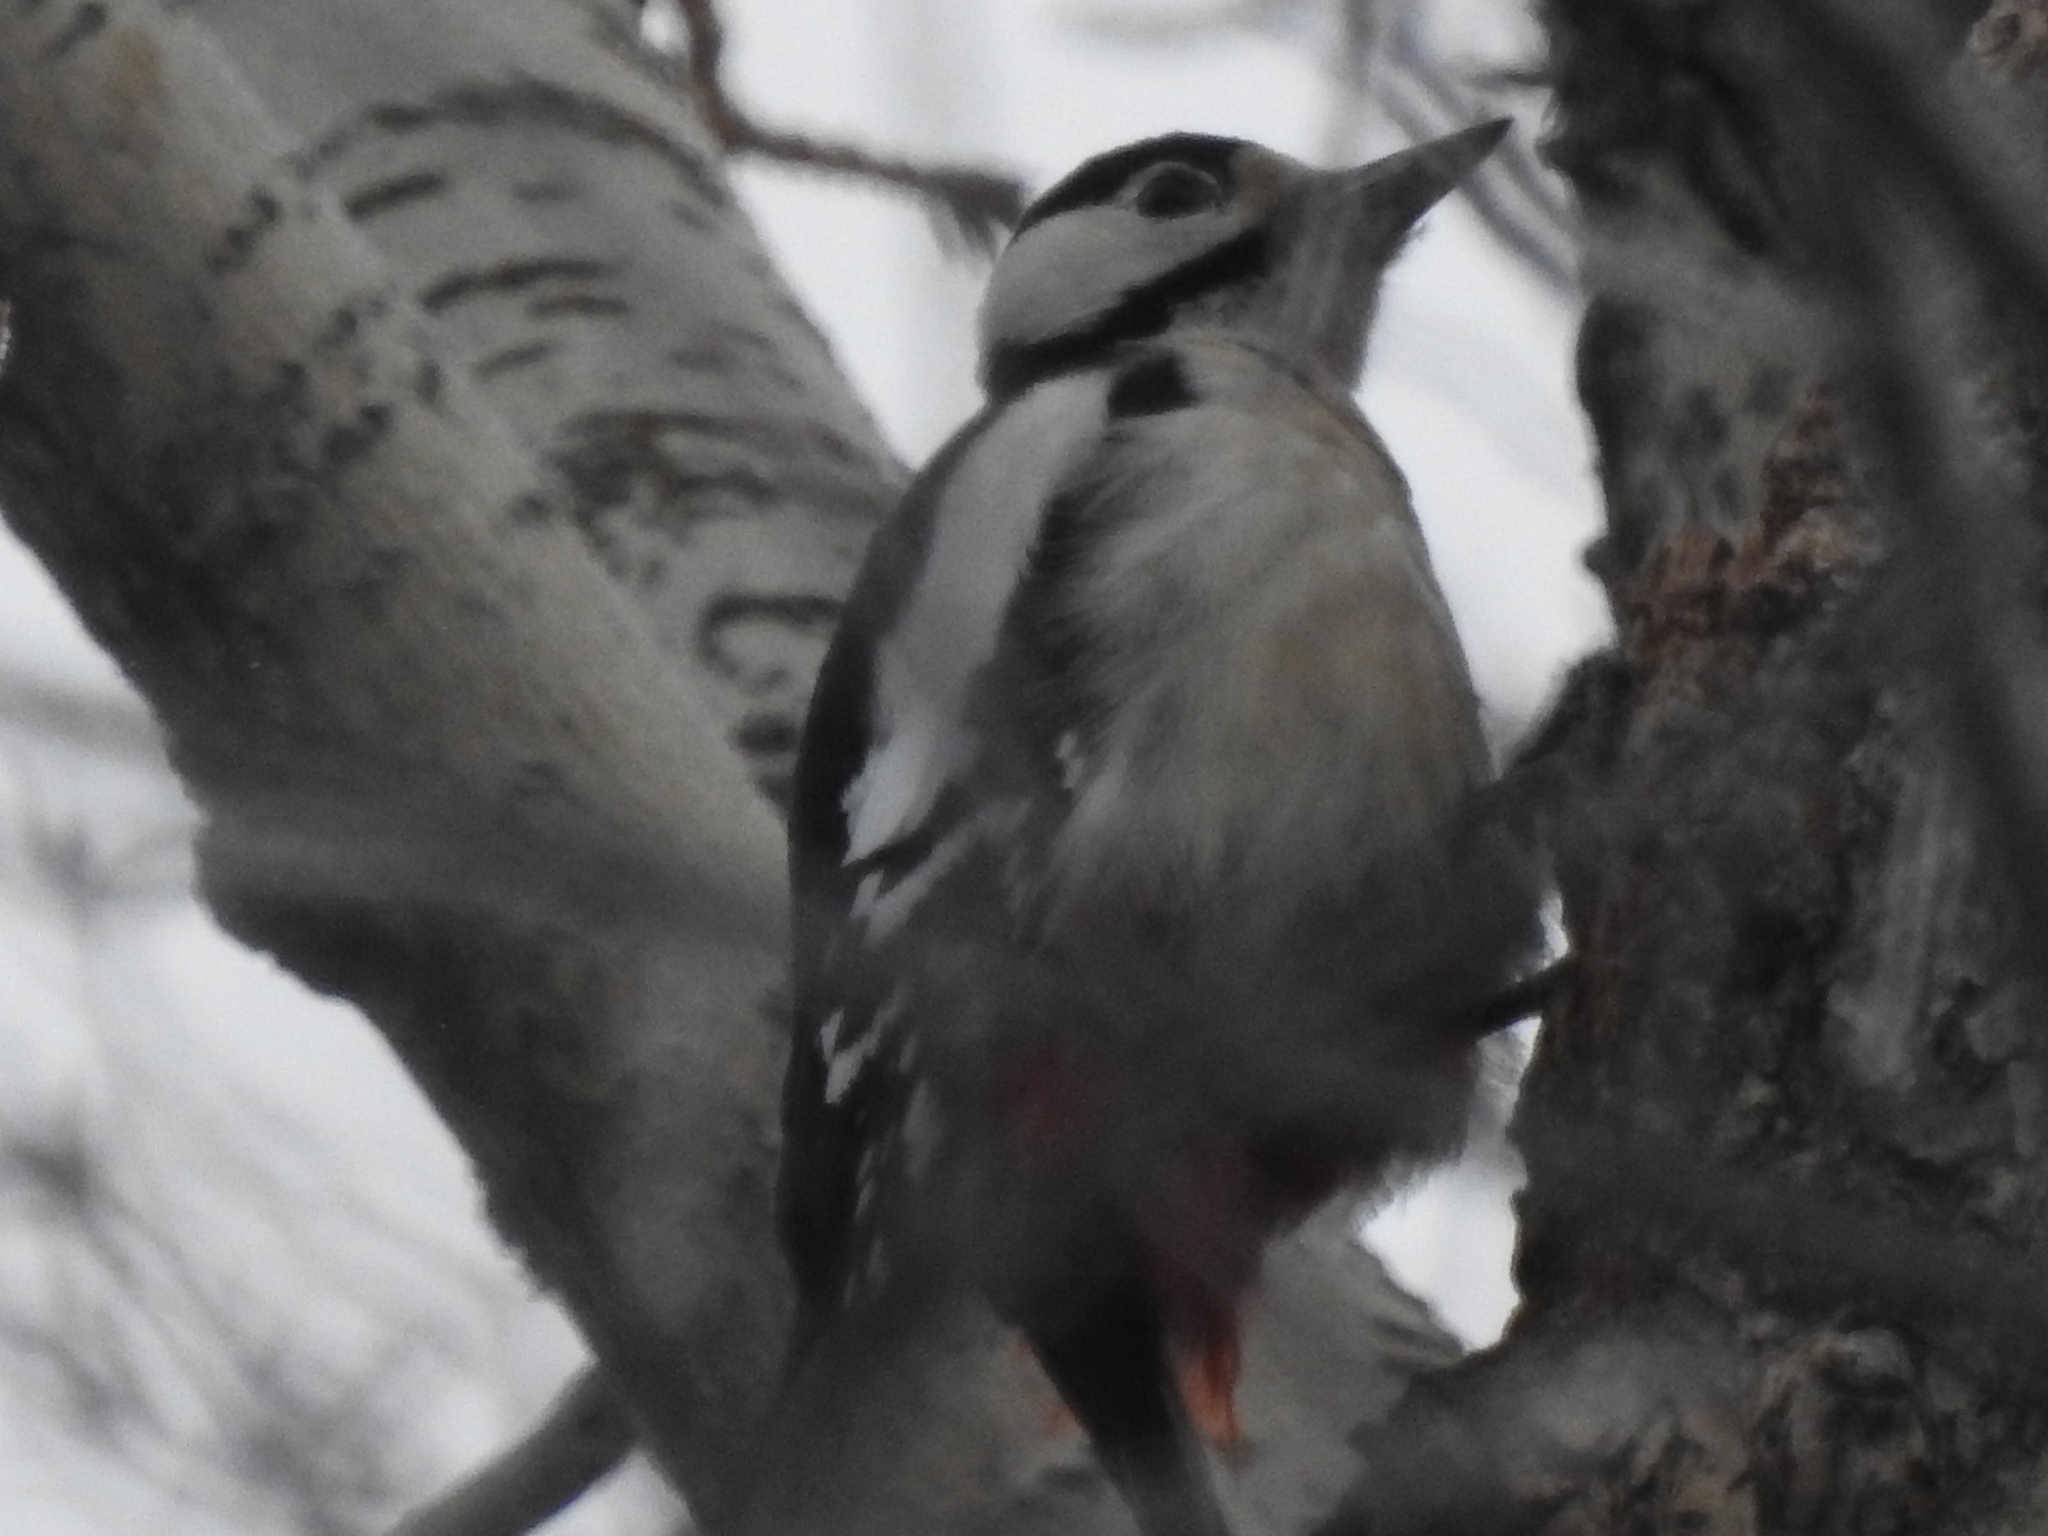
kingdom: Animalia
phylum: Chordata
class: Aves
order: Piciformes
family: Picidae
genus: Dendrocopos
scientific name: Dendrocopos major
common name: Great spotted woodpecker
